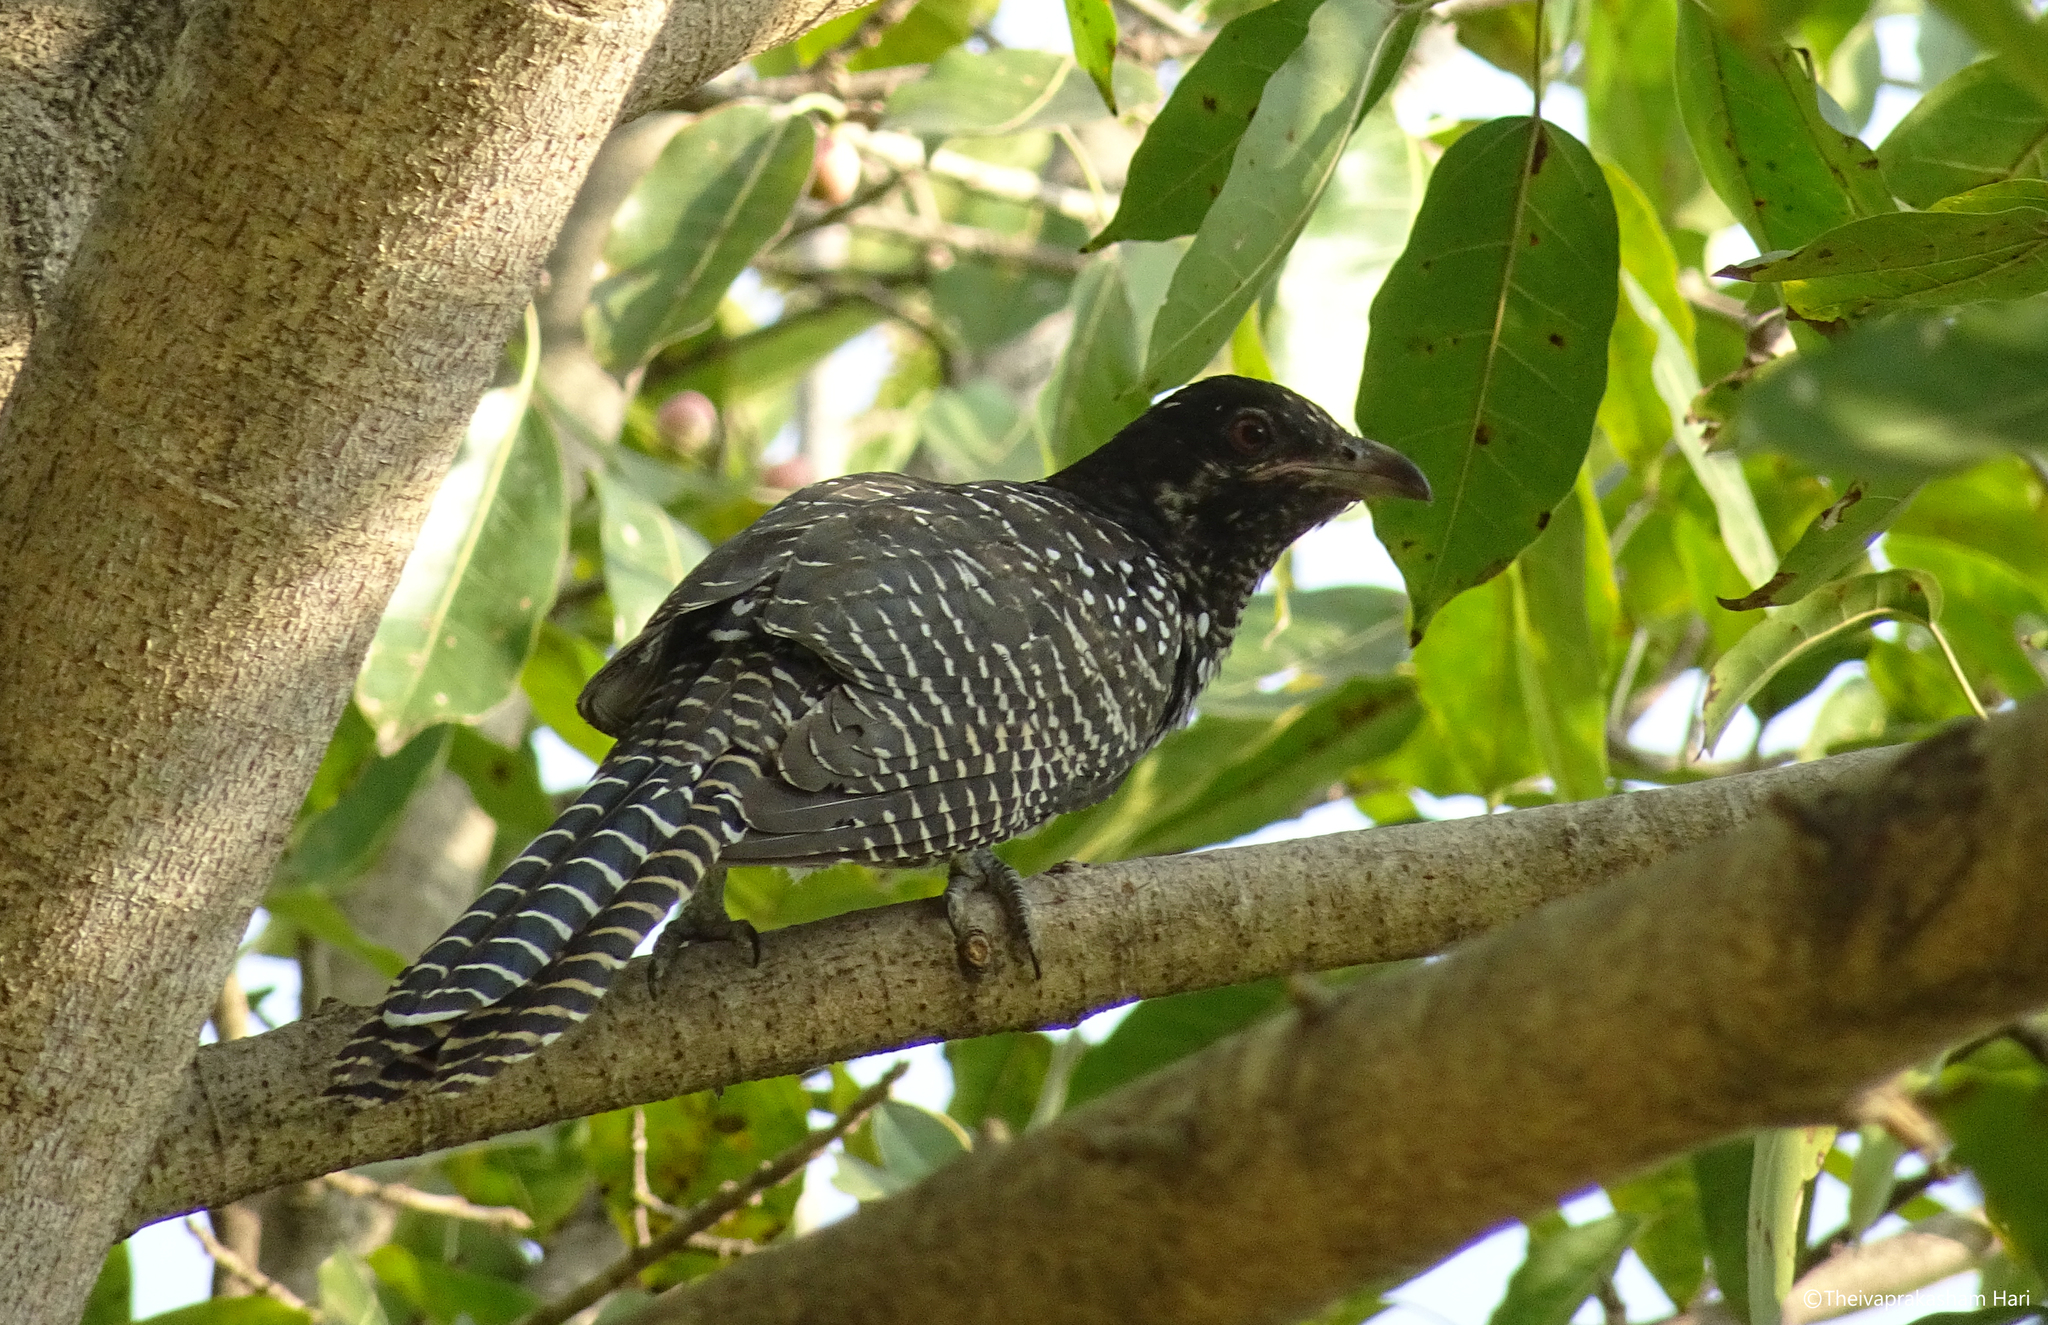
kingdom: Animalia
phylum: Chordata
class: Aves
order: Cuculiformes
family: Cuculidae
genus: Eudynamys
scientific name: Eudynamys scolopaceus
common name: Asian koel
